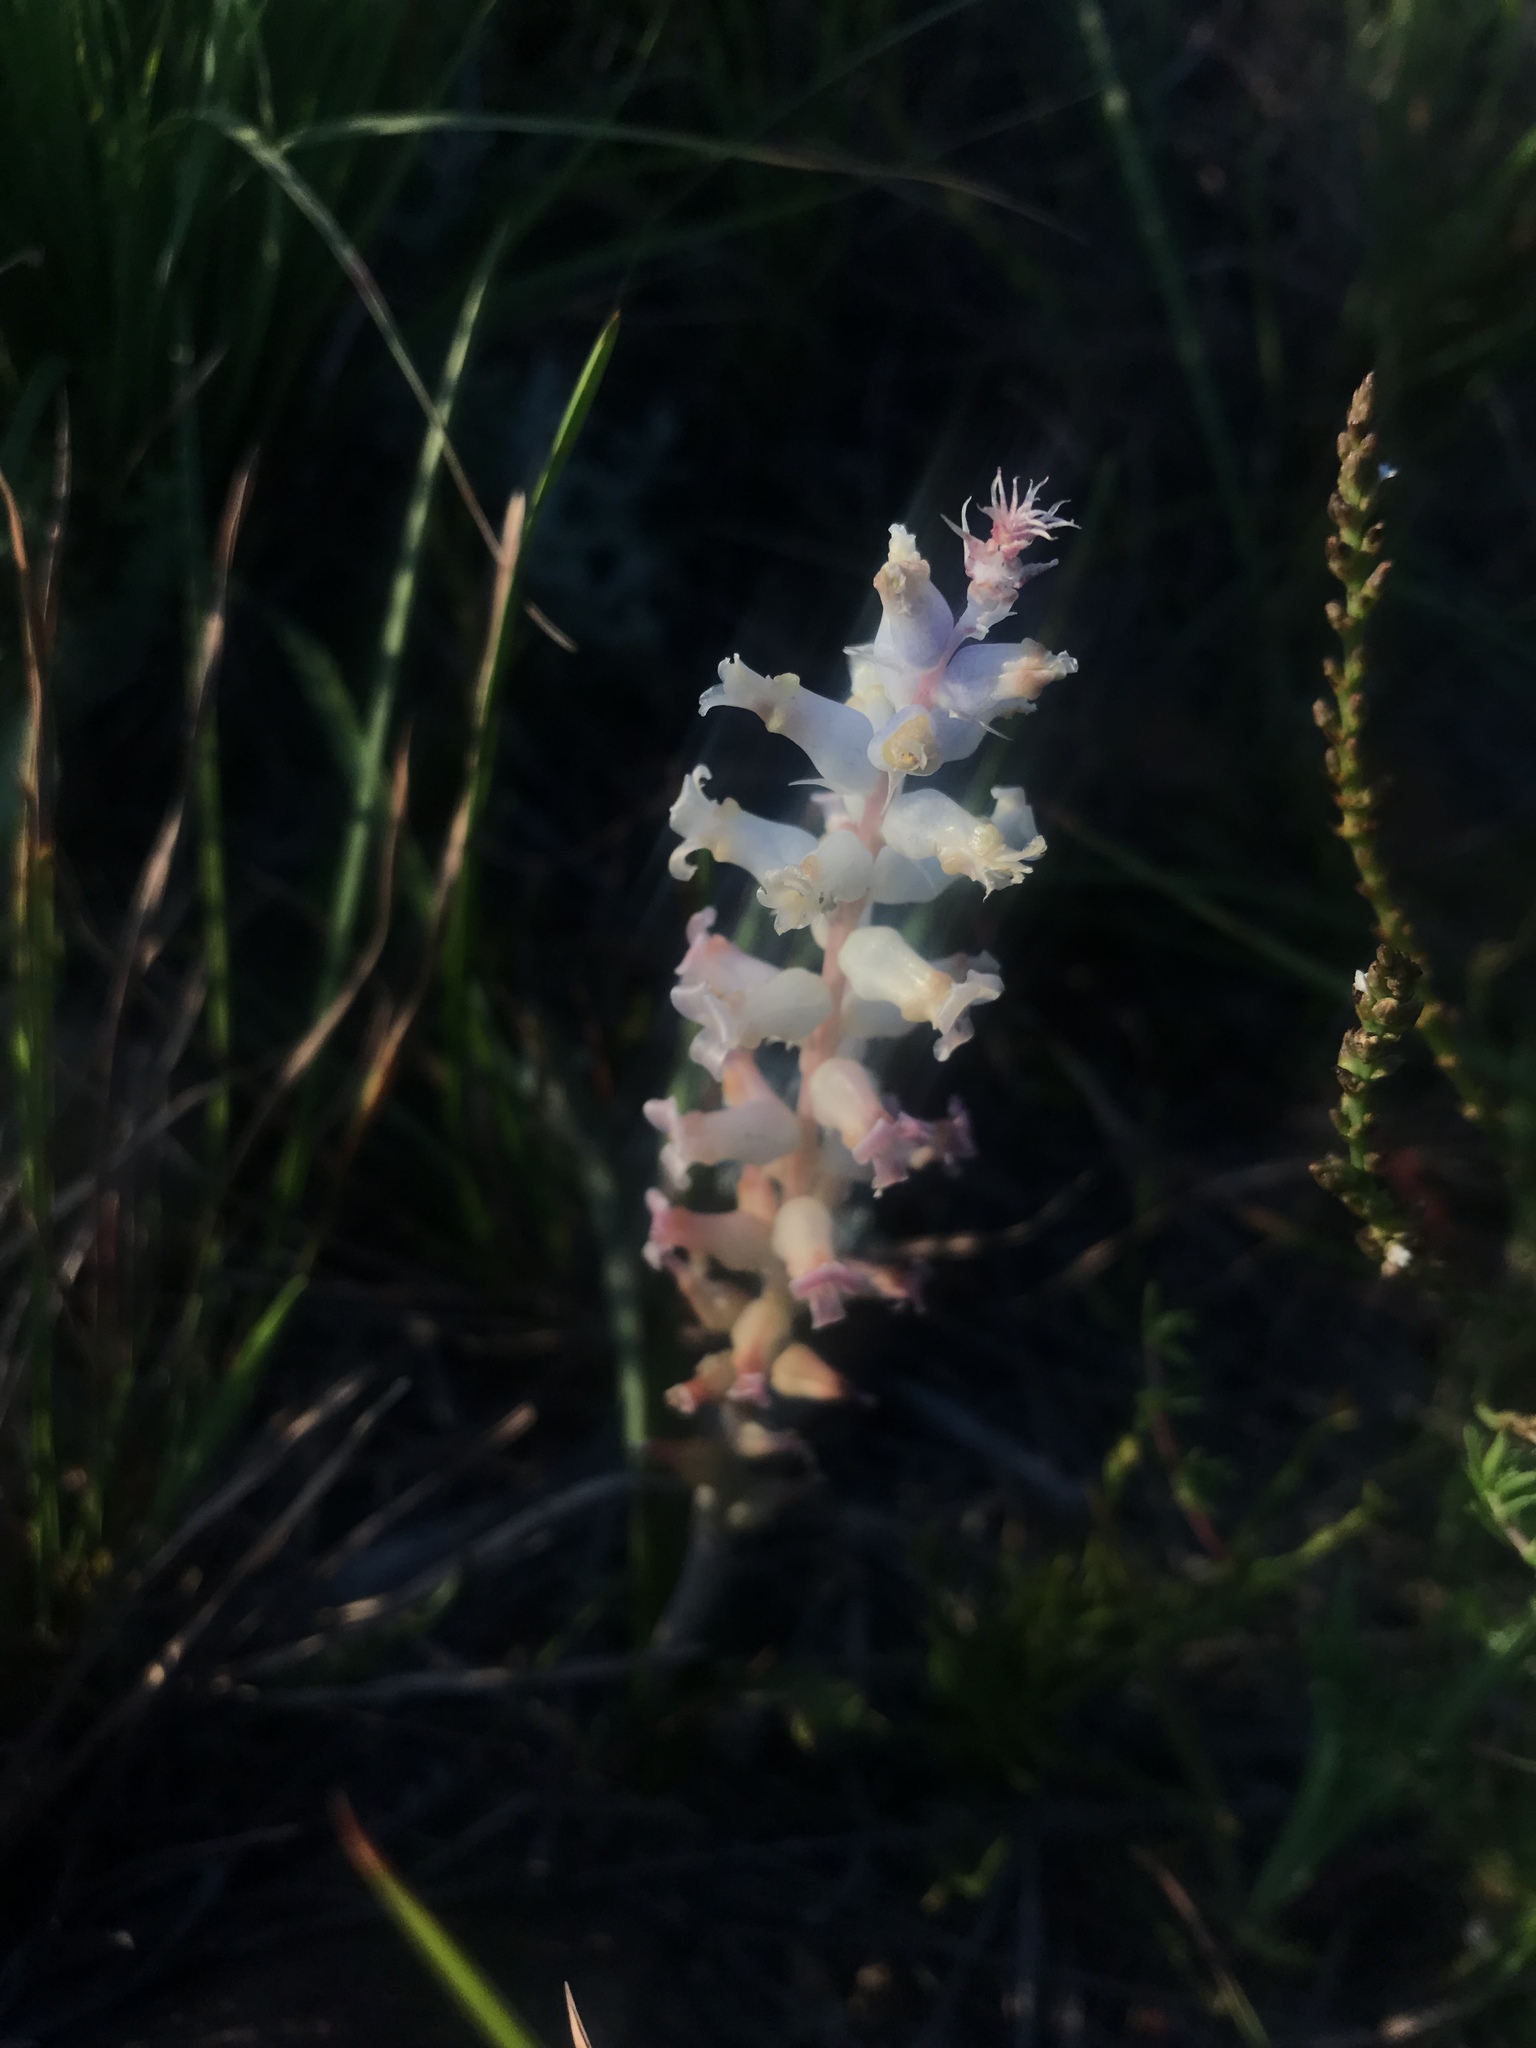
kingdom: Plantae
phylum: Tracheophyta
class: Liliopsida
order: Asparagales
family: Asparagaceae
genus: Lachenalia
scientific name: Lachenalia fistulosa
